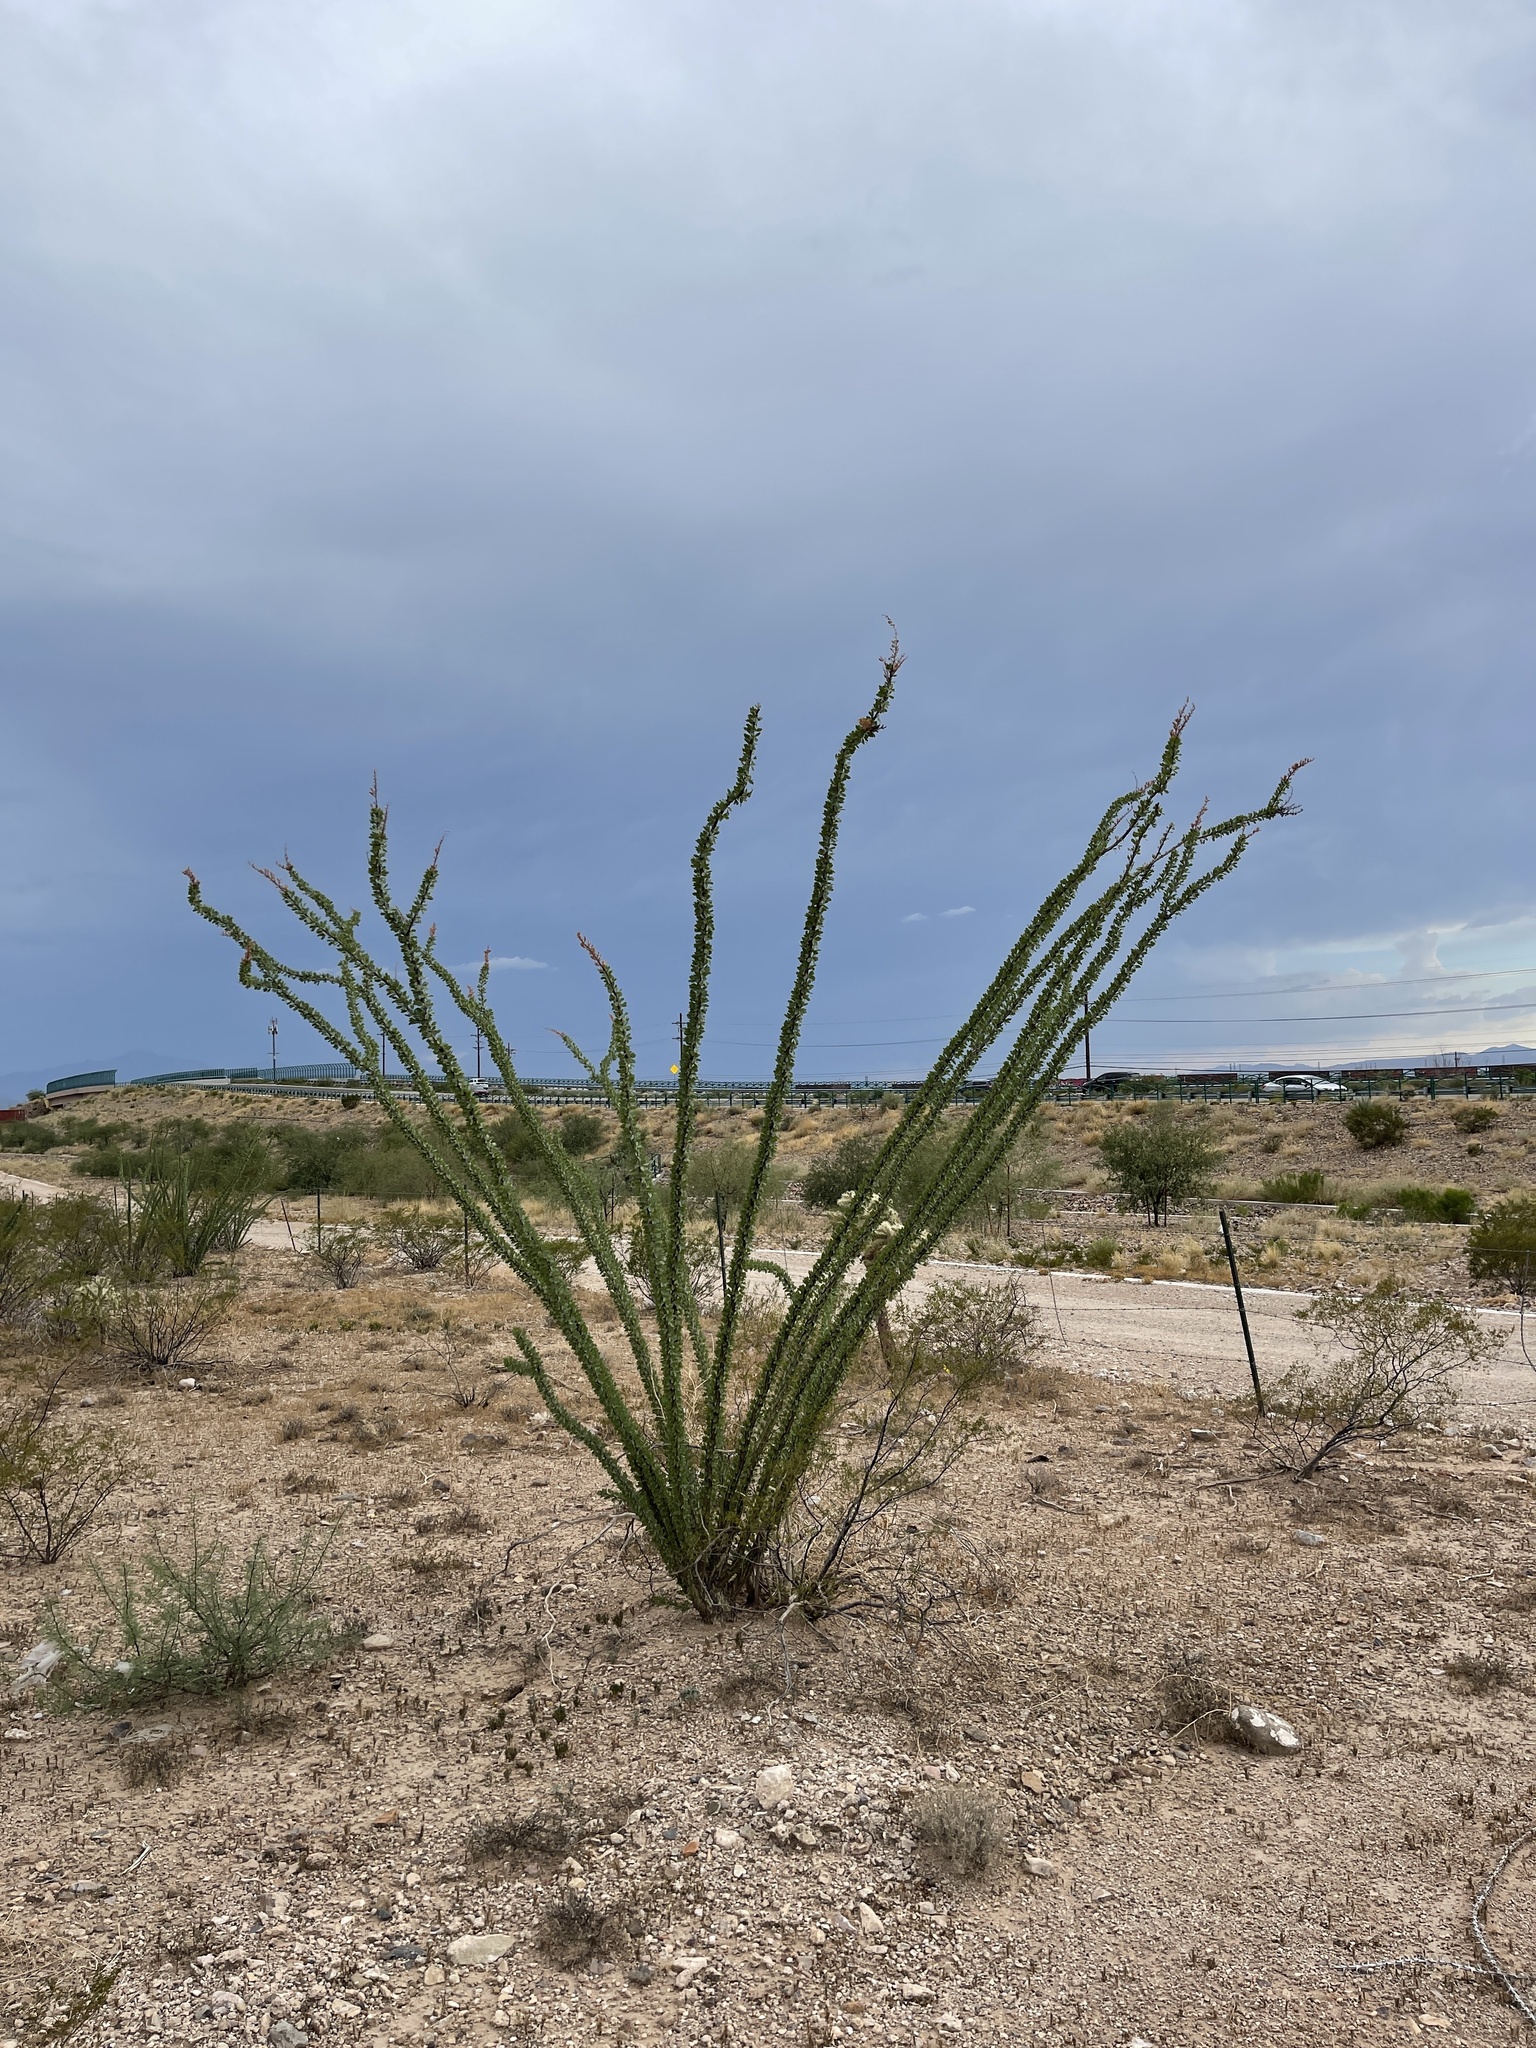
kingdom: Plantae
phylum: Tracheophyta
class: Magnoliopsida
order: Ericales
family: Fouquieriaceae
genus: Fouquieria
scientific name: Fouquieria splendens
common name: Vine-cactus
